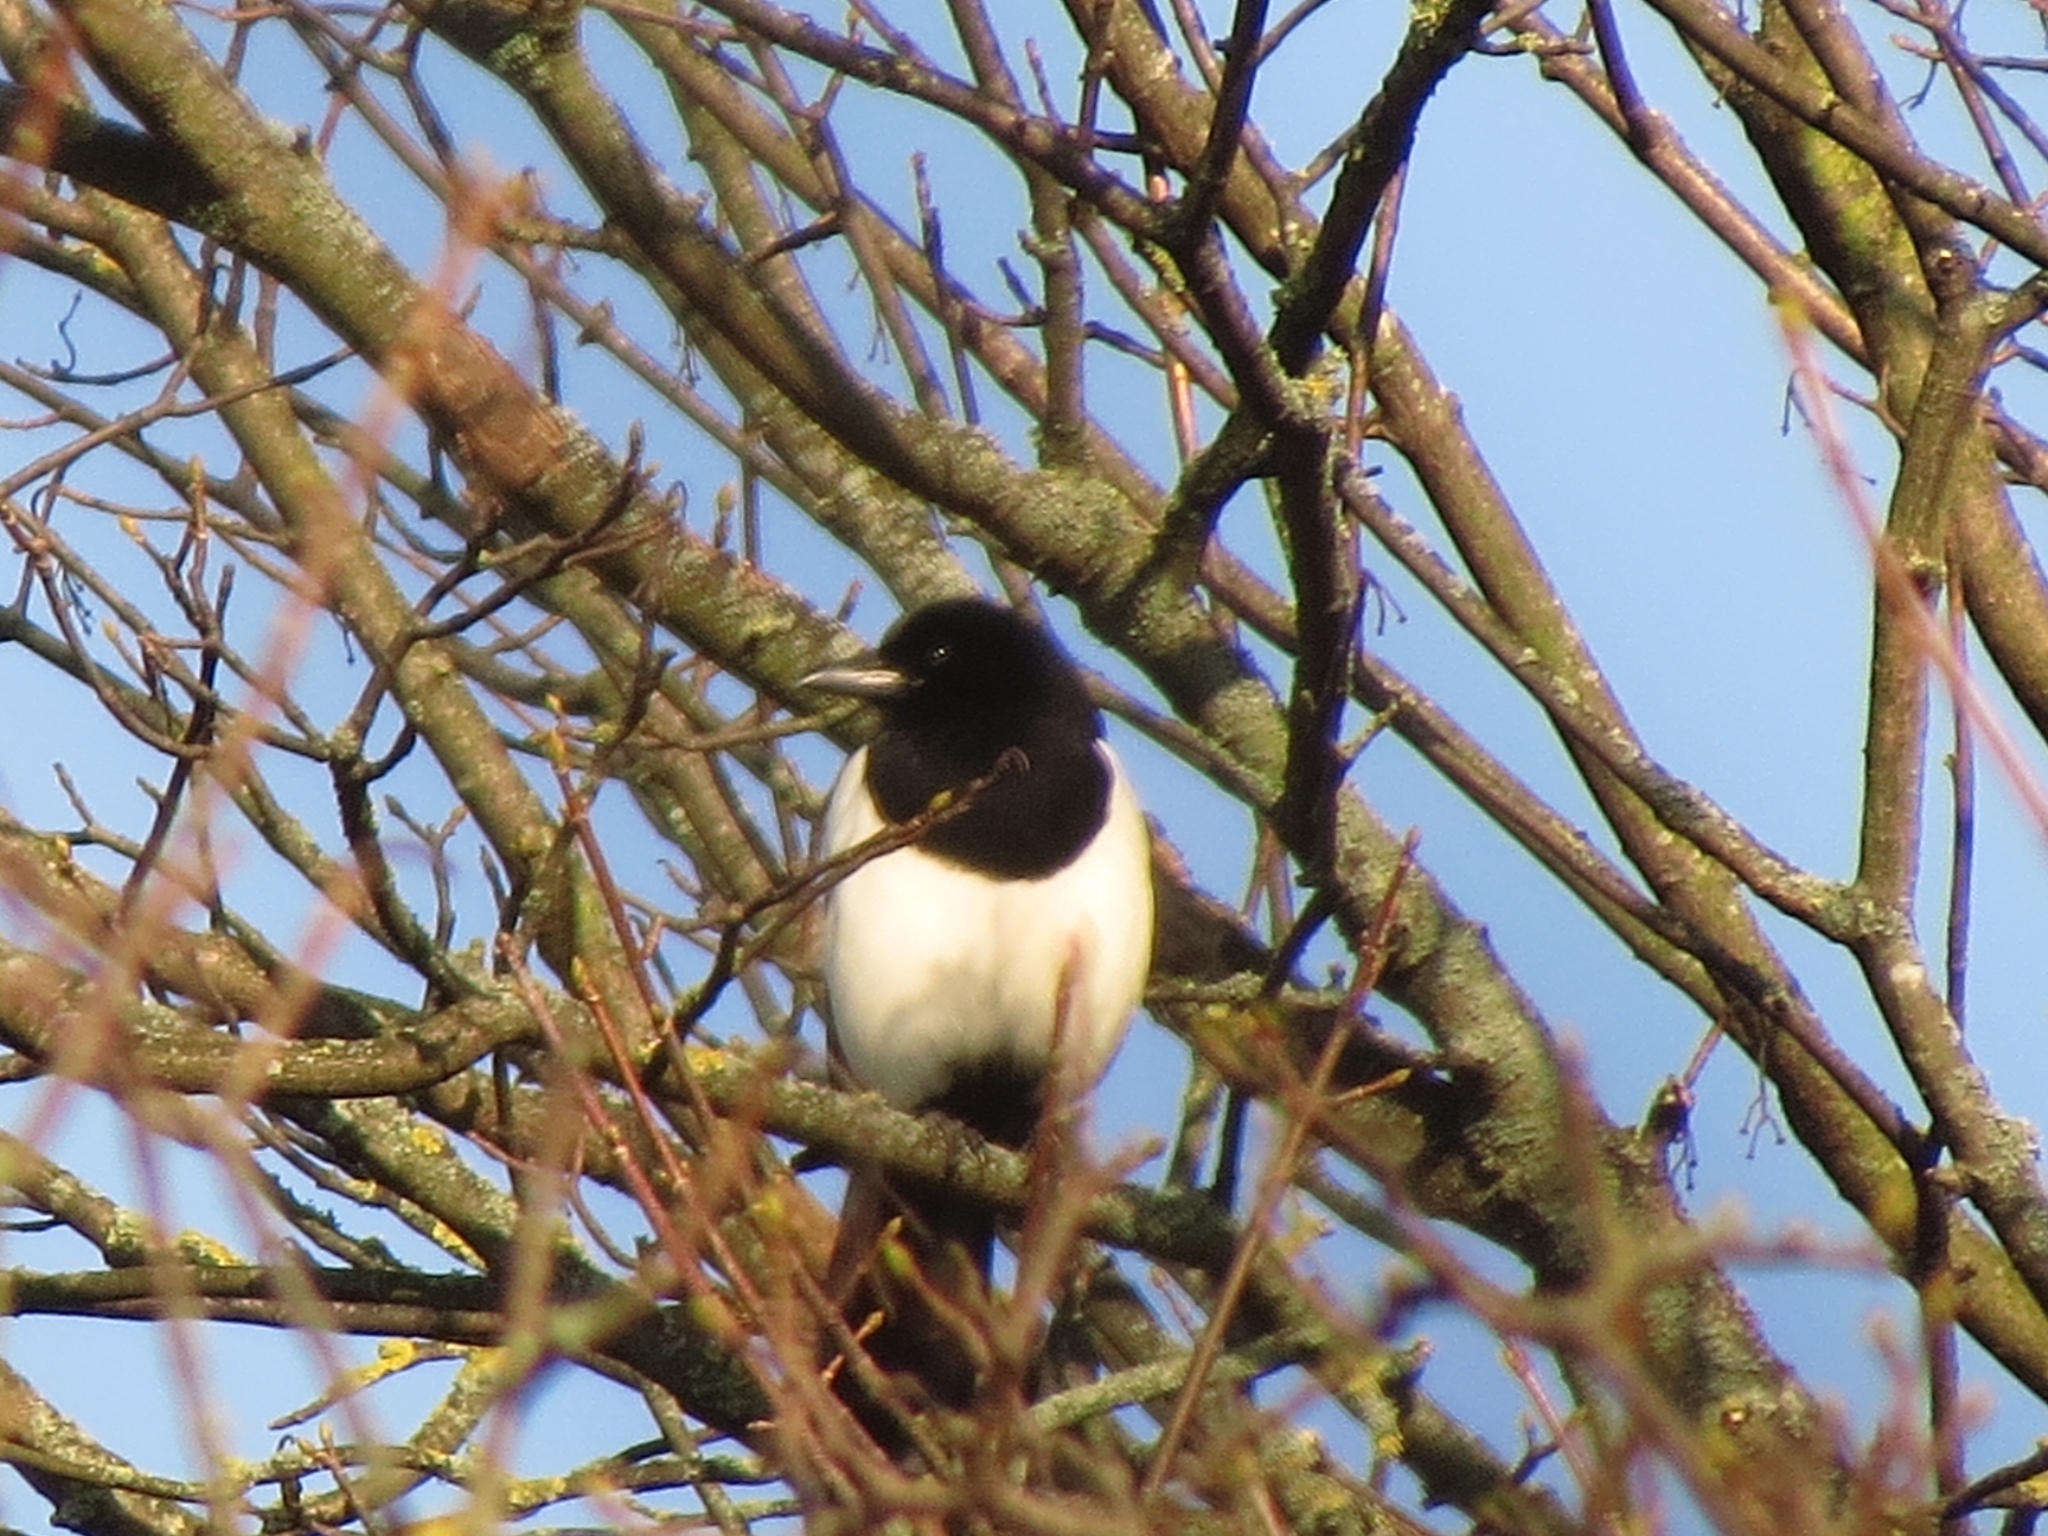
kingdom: Animalia
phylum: Chordata
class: Aves
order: Passeriformes
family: Corvidae
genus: Pica
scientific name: Pica pica
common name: Eurasian magpie
